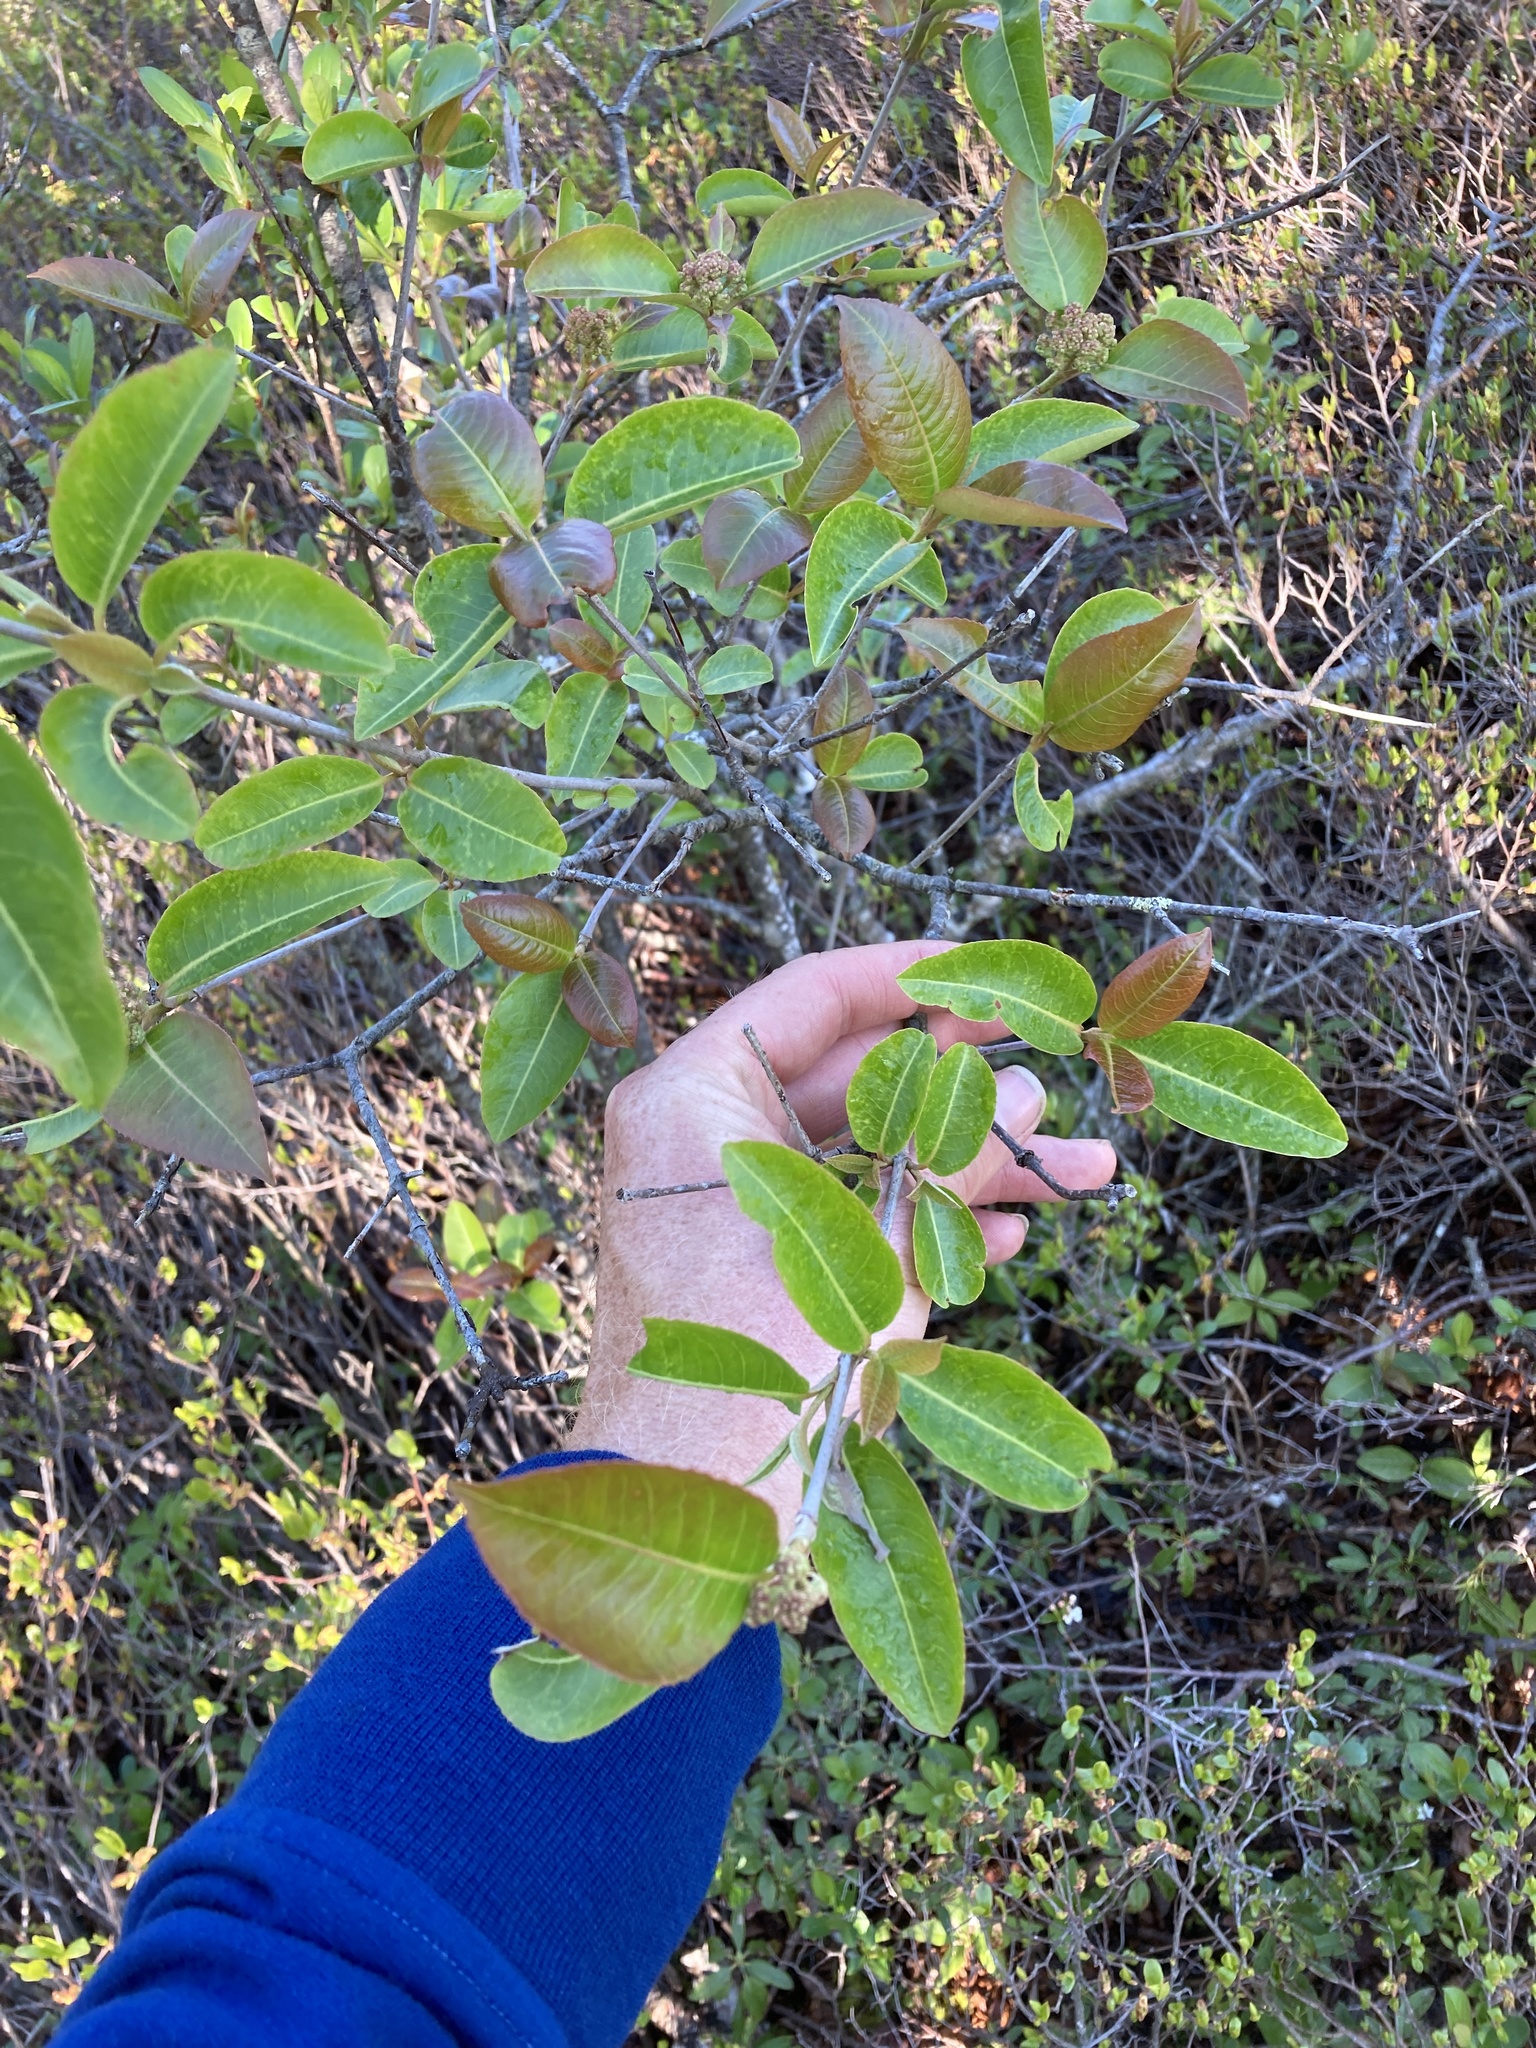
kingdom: Plantae
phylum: Tracheophyta
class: Magnoliopsida
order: Dipsacales
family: Viburnaceae
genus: Viburnum
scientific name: Viburnum cassinoides
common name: Swamp haw
